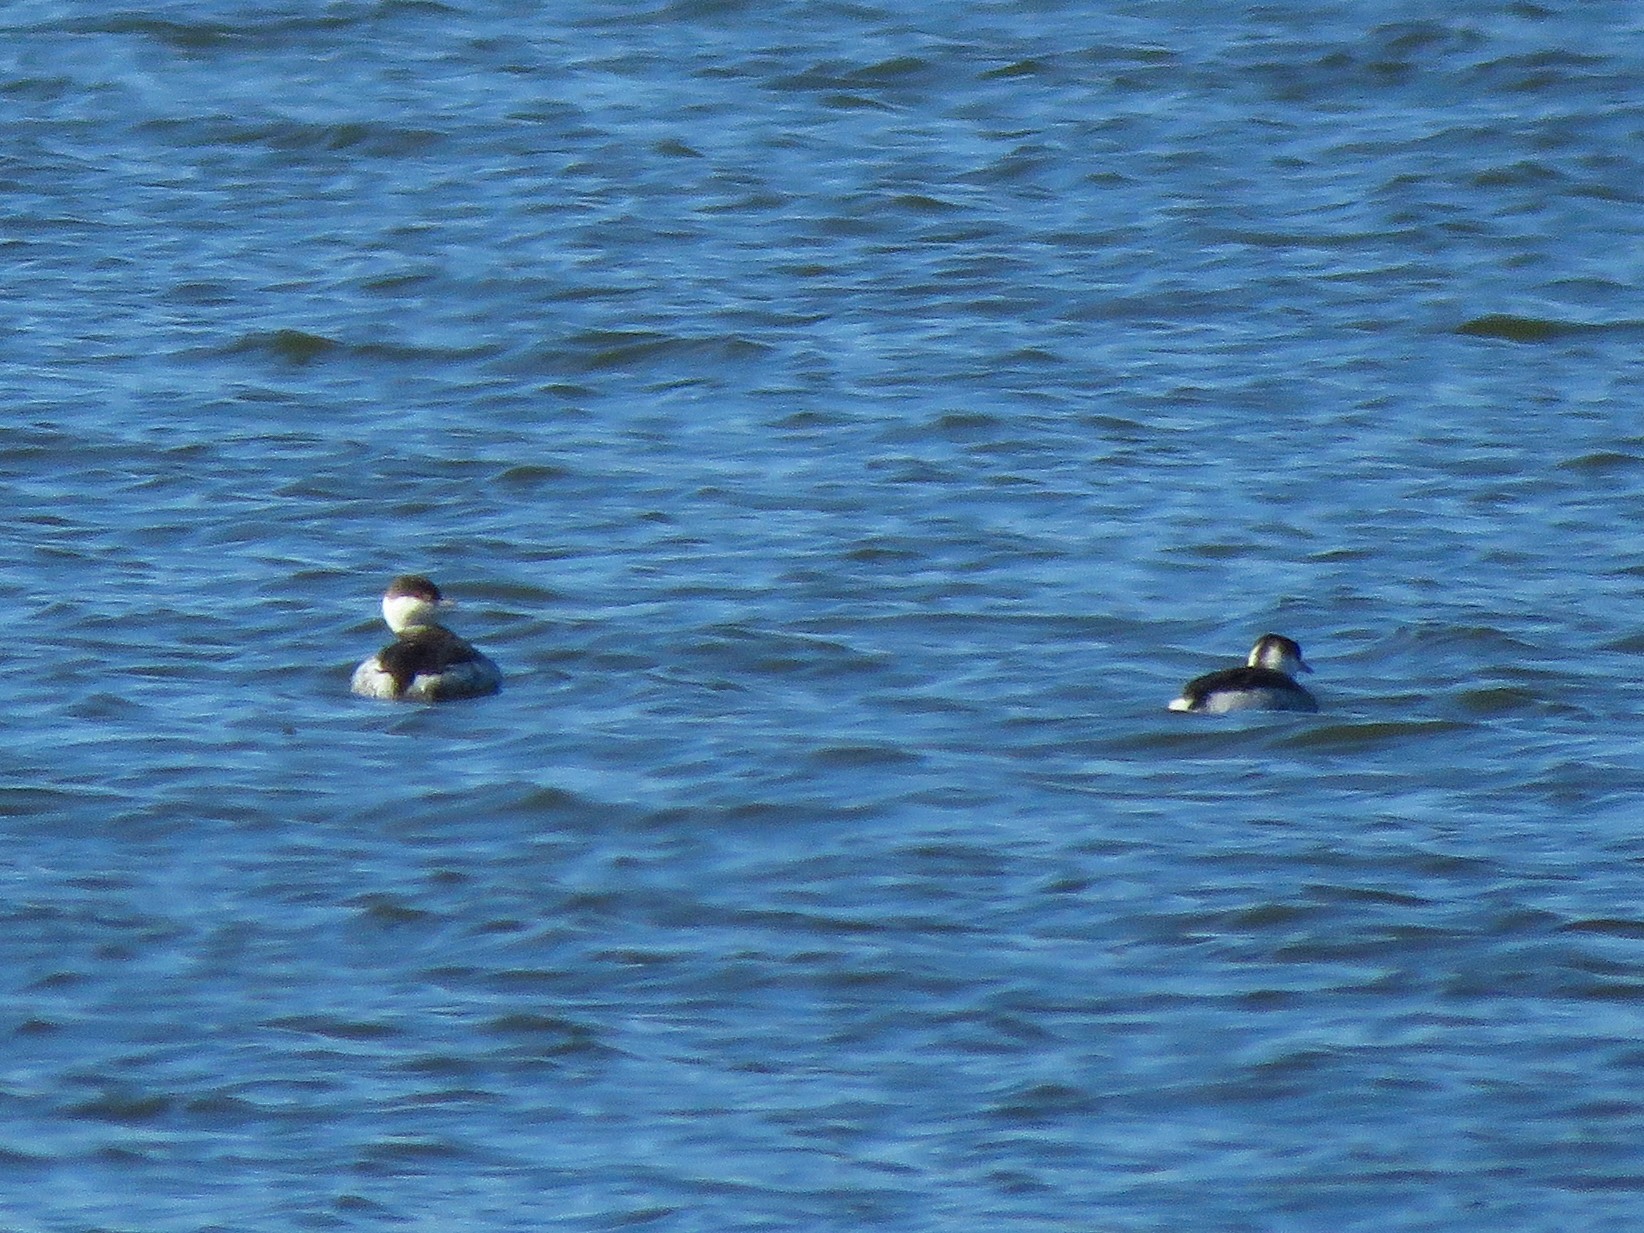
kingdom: Animalia
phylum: Chordata
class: Aves
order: Podicipediformes
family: Podicipedidae
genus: Podiceps
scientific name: Podiceps auritus
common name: Horned grebe
